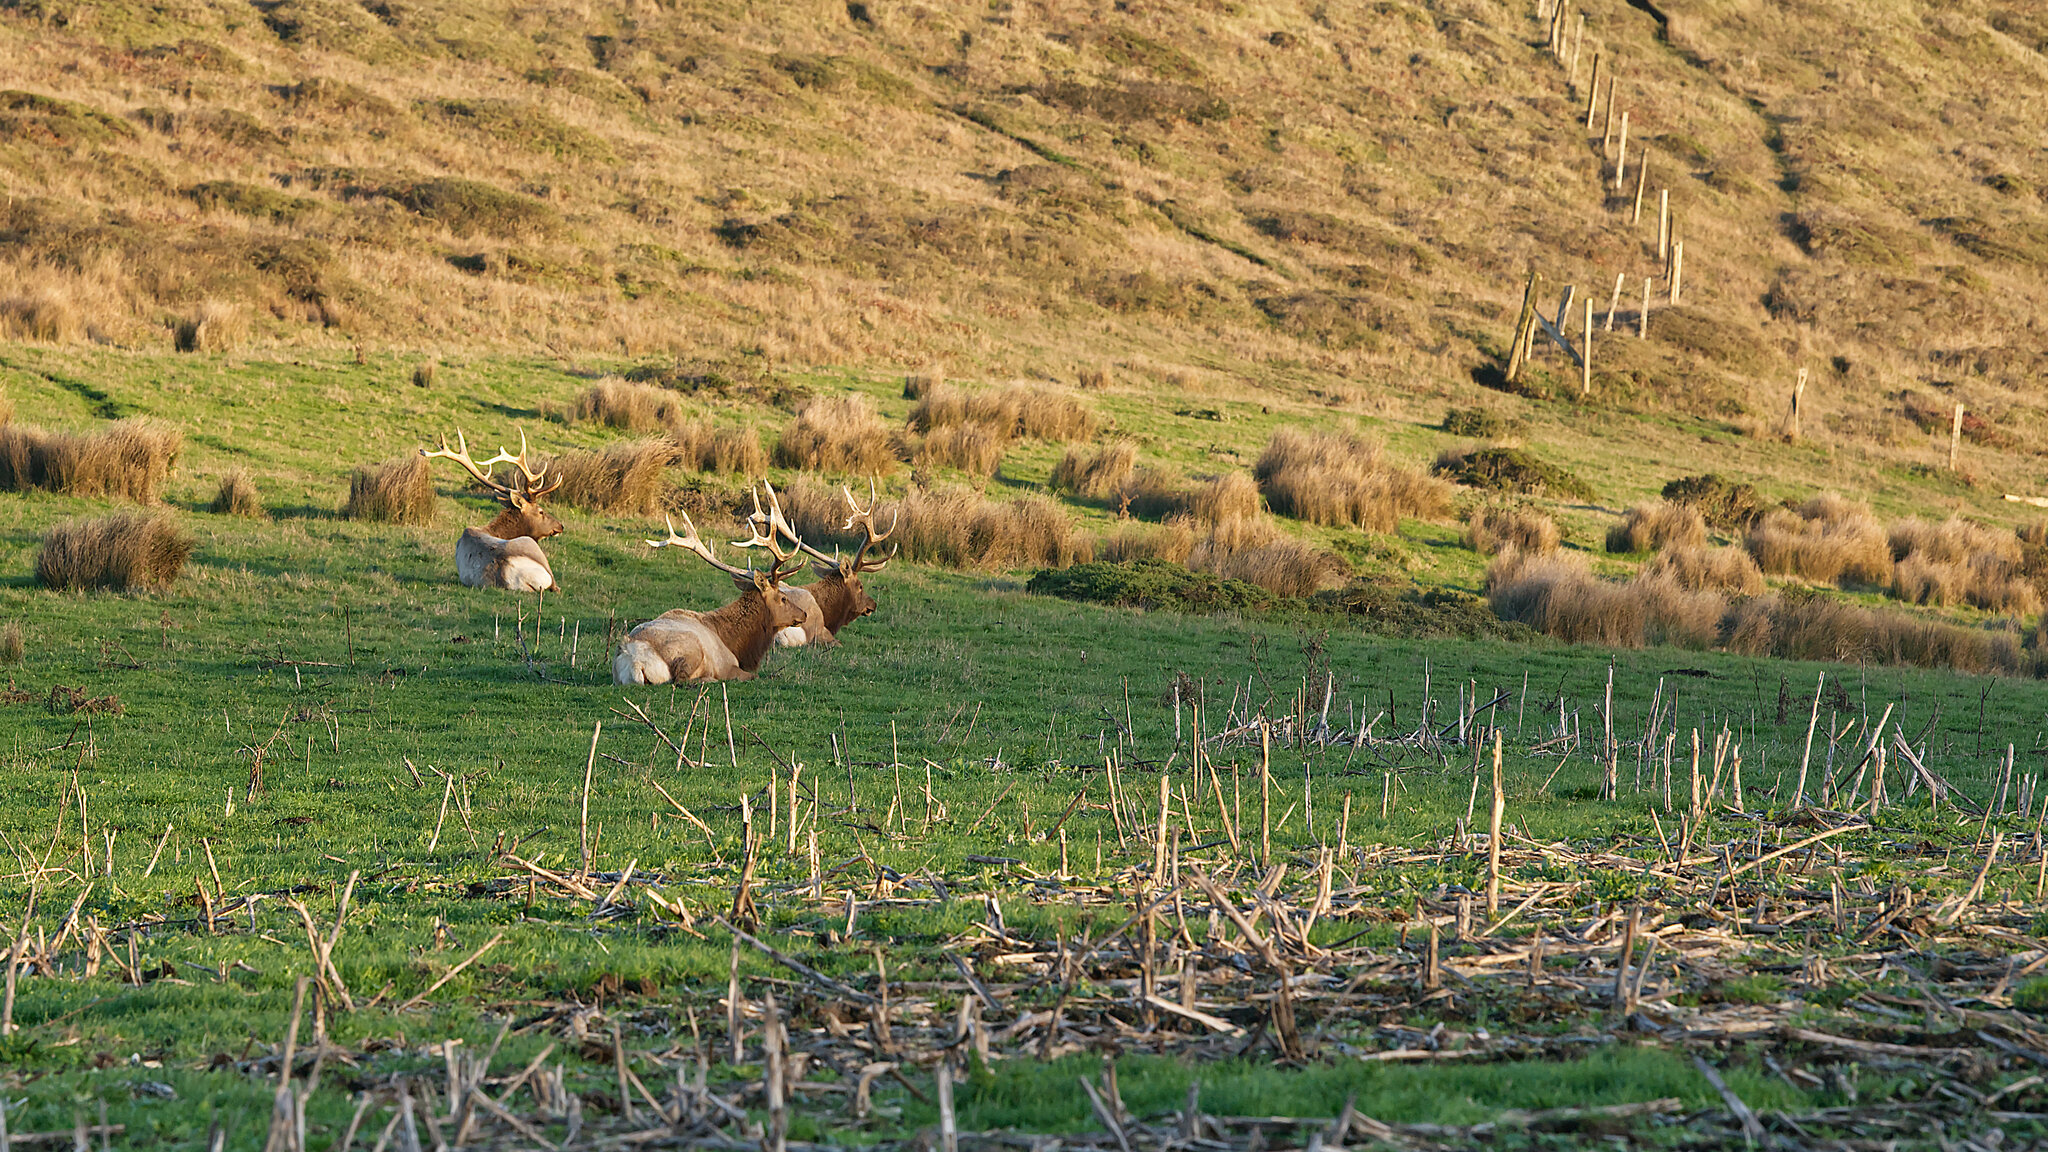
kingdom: Animalia
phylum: Chordata
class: Mammalia
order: Artiodactyla
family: Cervidae
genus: Cervus
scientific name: Cervus elaphus
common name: Red deer
